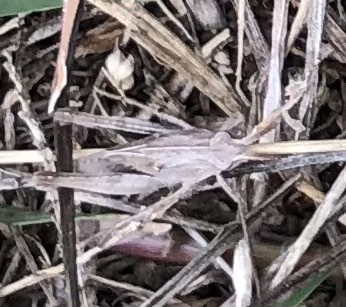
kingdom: Animalia
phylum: Arthropoda
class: Insecta
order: Orthoptera
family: Acrididae
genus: Chortophaga
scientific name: Chortophaga viridifasciata
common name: Green-striped grasshopper
